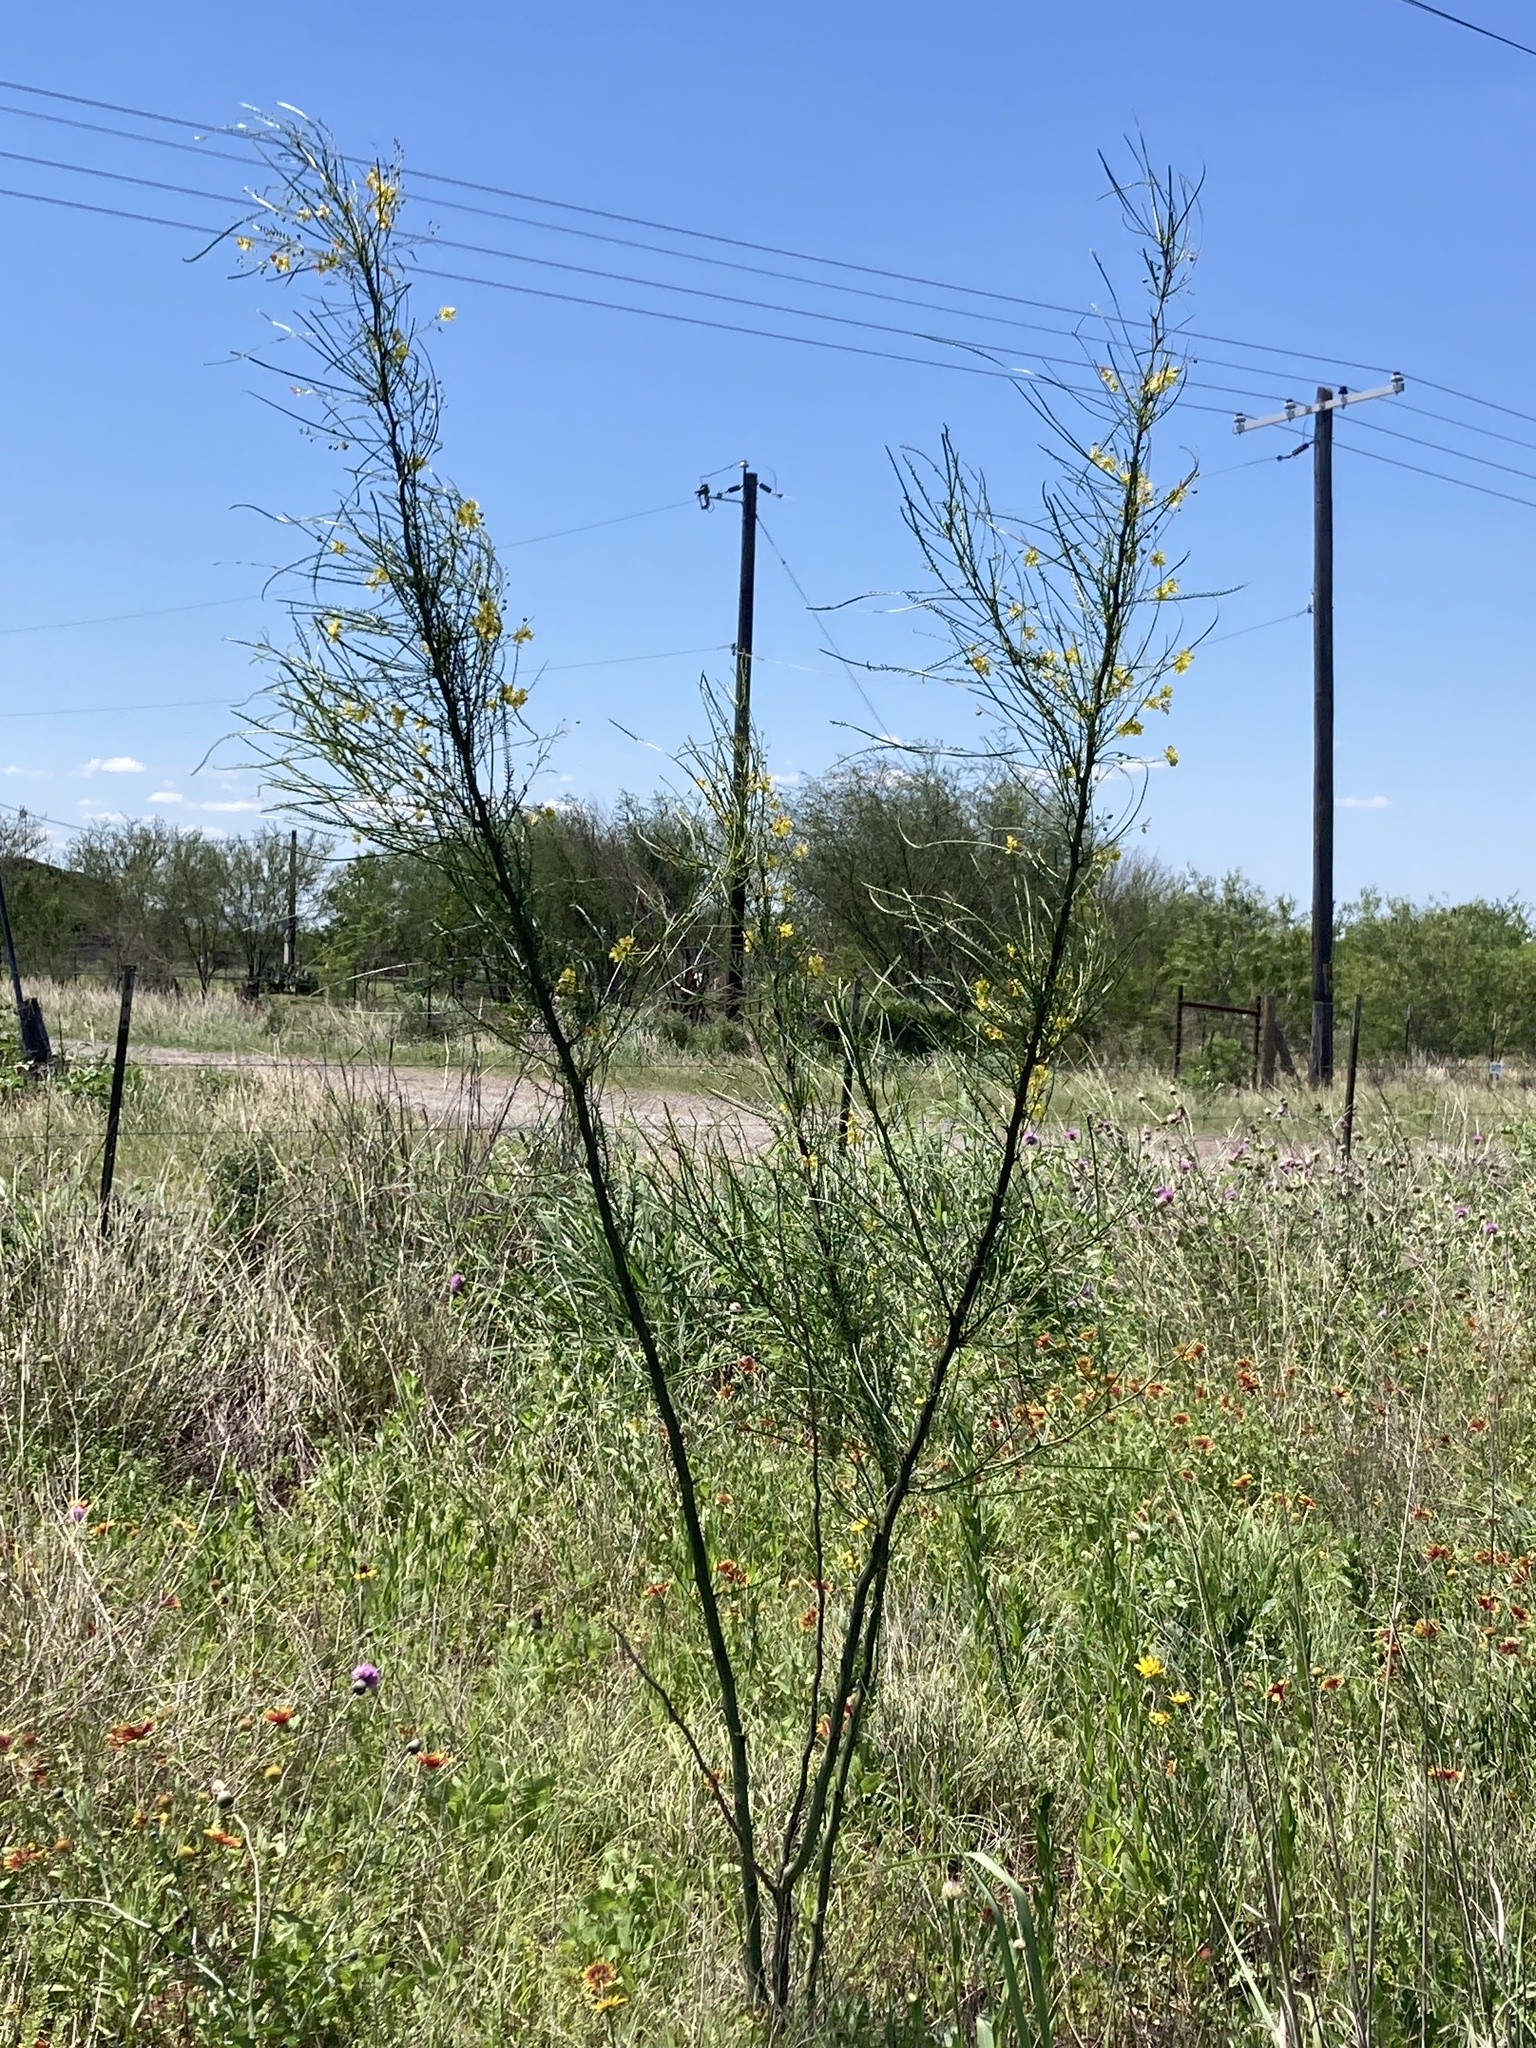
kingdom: Plantae
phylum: Tracheophyta
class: Magnoliopsida
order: Fabales
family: Fabaceae
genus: Parkinsonia
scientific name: Parkinsonia aculeata
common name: Jerusalem thorn
